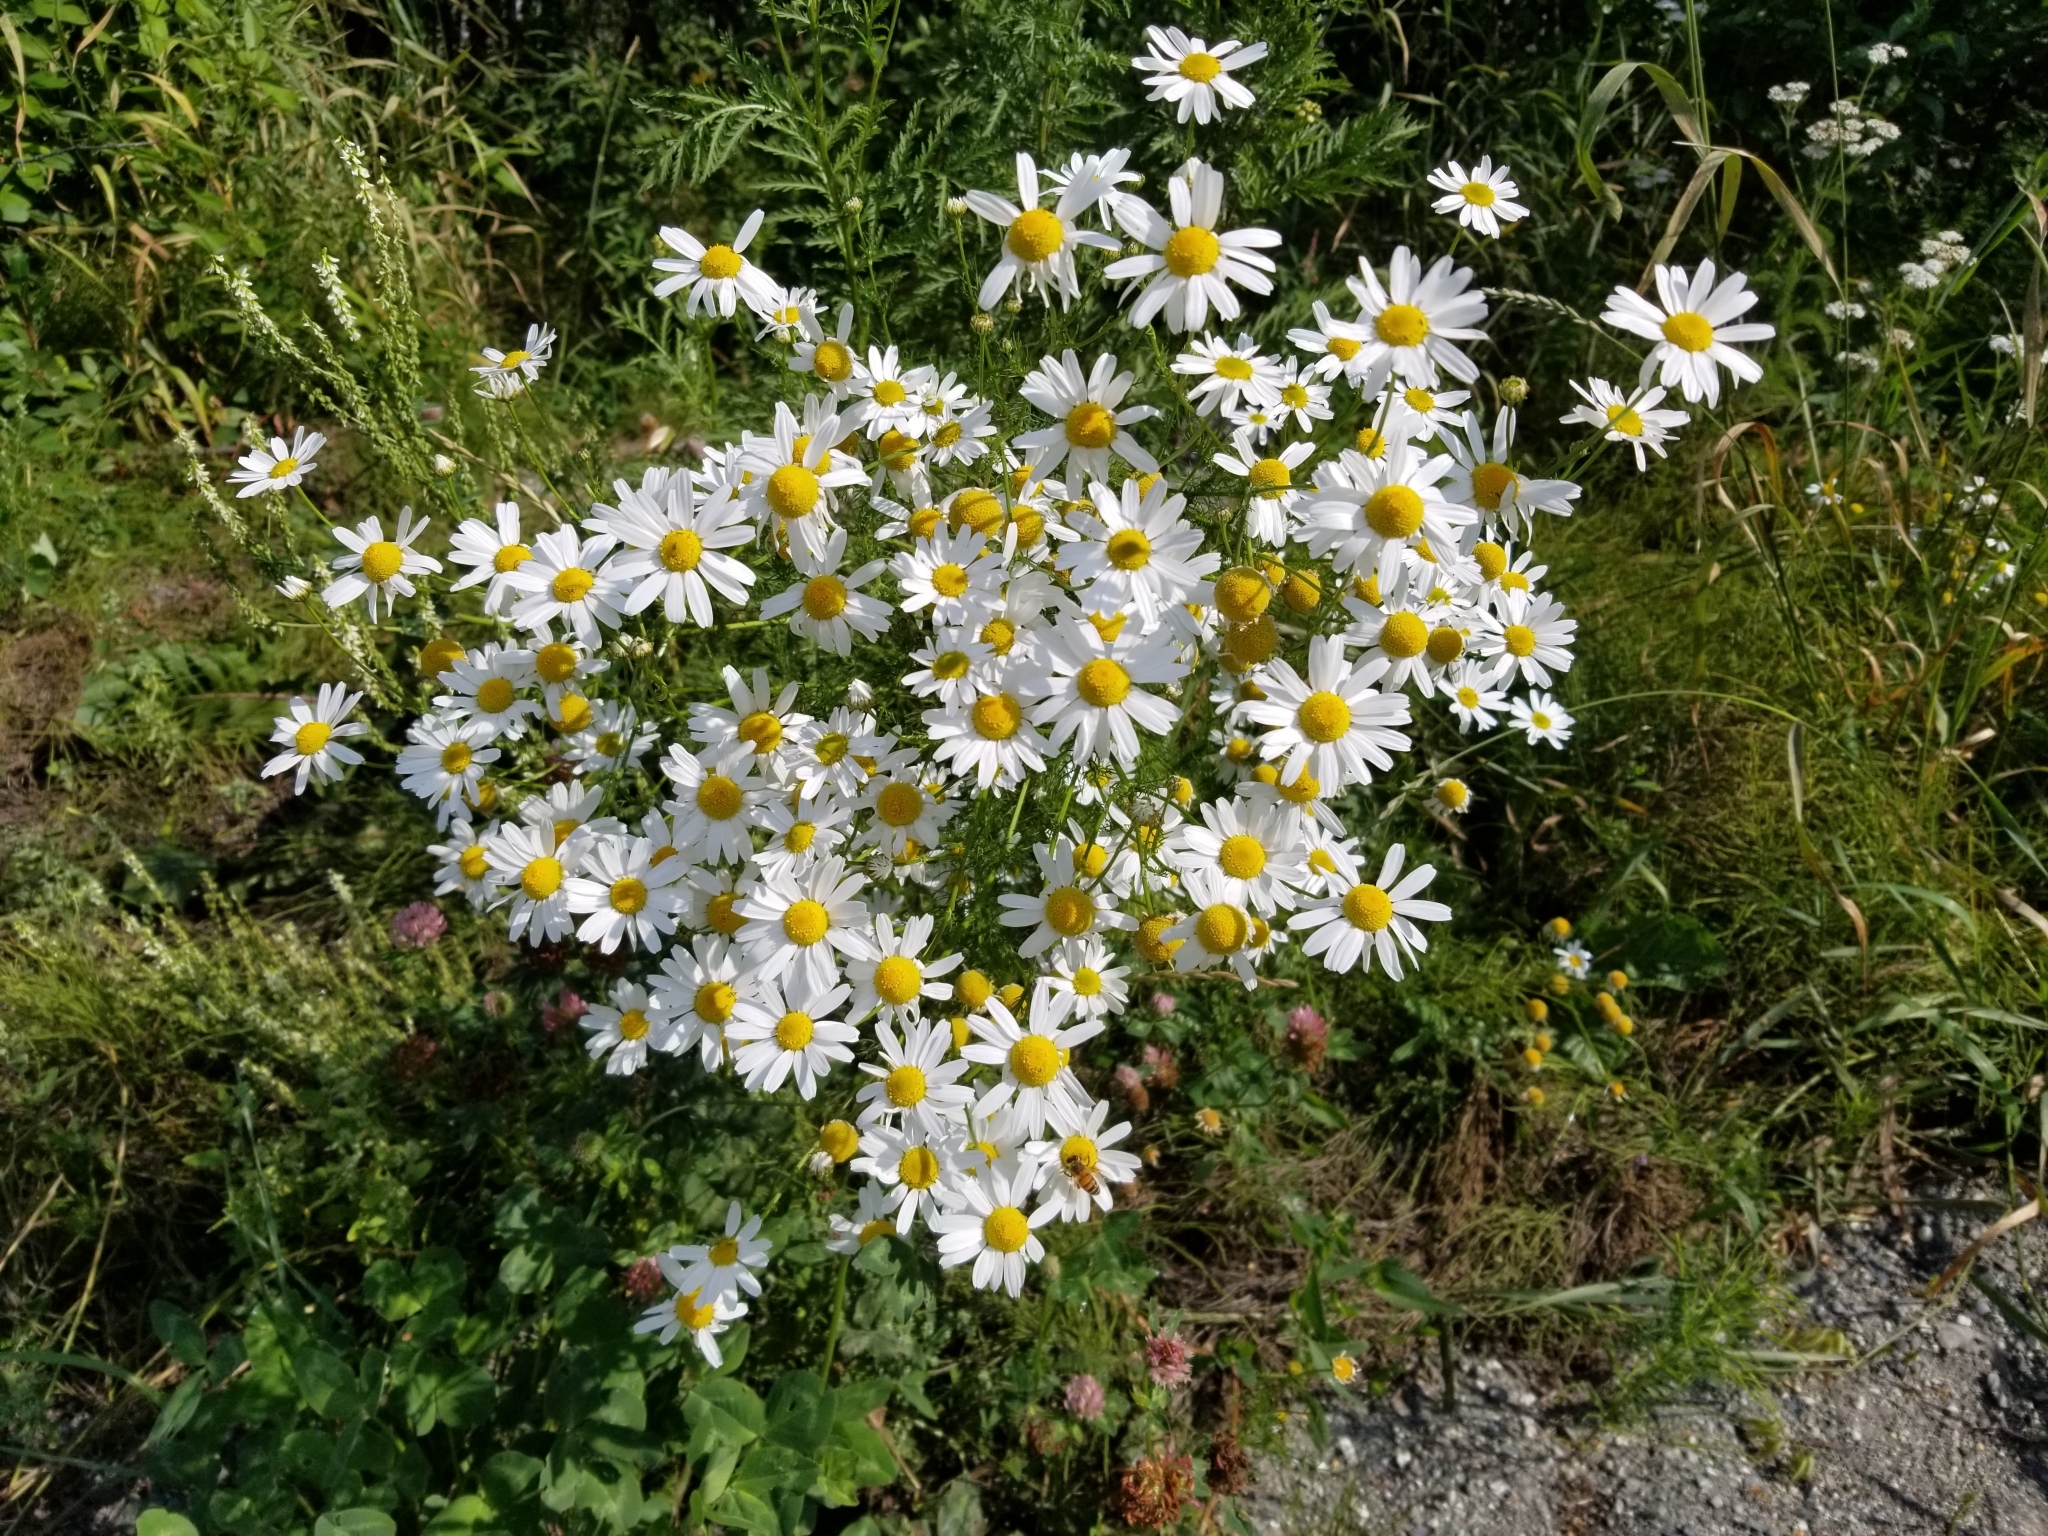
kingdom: Plantae
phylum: Tracheophyta
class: Magnoliopsida
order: Asterales
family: Asteraceae
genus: Tripleurospermum
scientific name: Tripleurospermum inodorum
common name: Scentless mayweed
